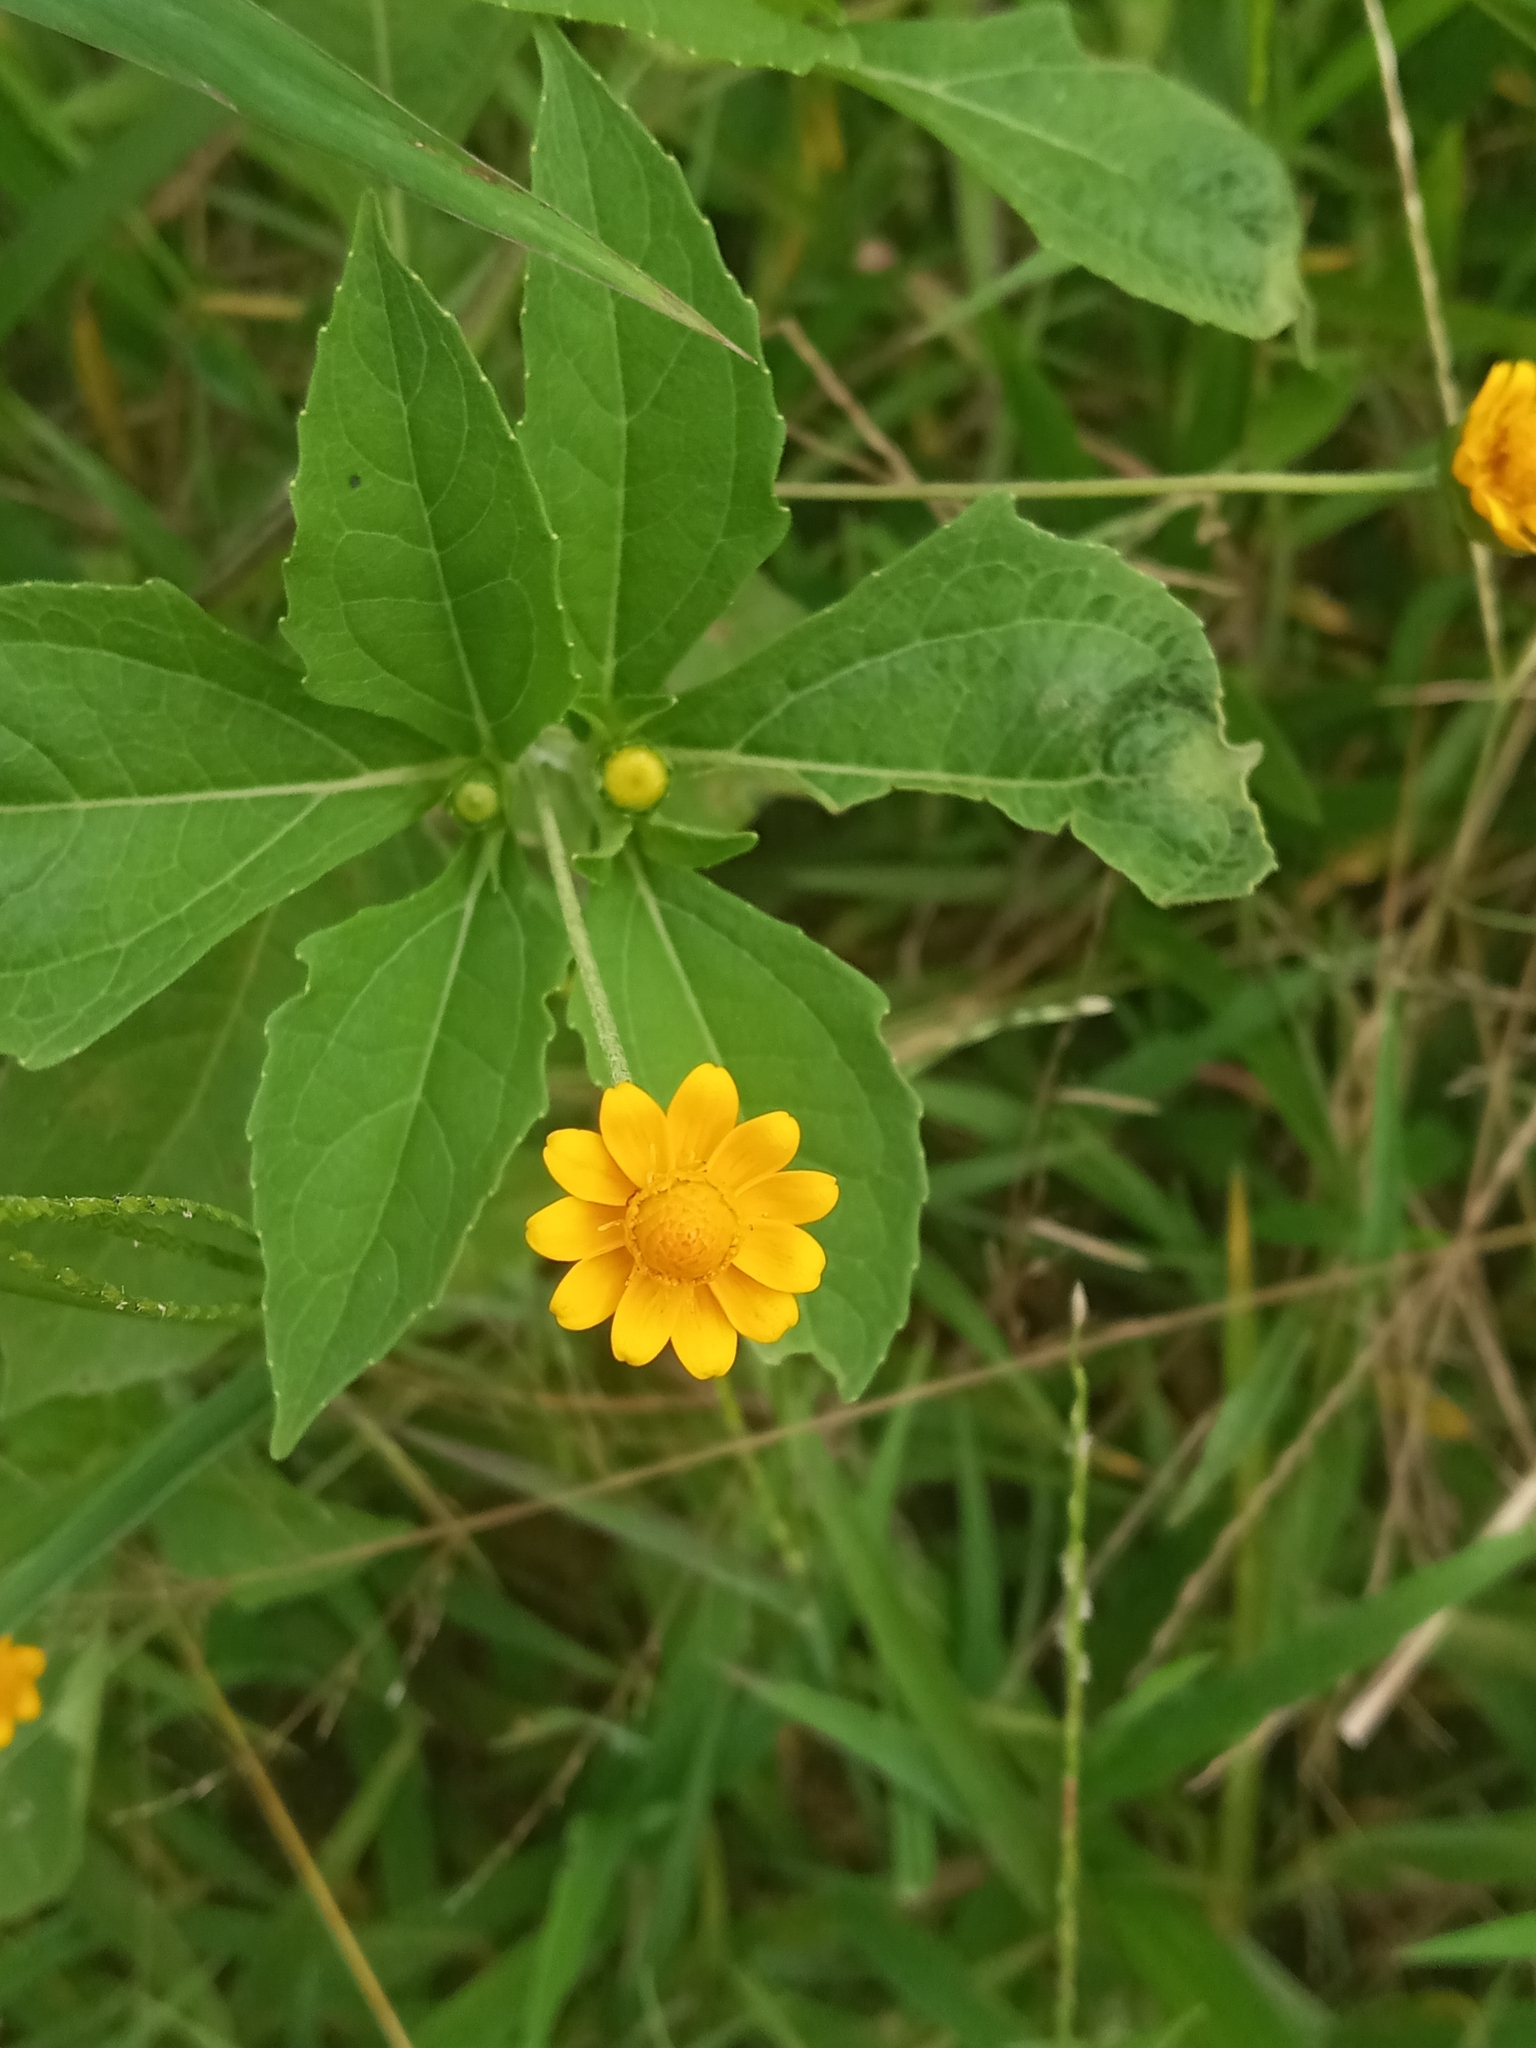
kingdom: Plantae
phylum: Tracheophyta
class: Magnoliopsida
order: Asterales
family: Asteraceae
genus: Melampodium
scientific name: Melampodium divaricatum
